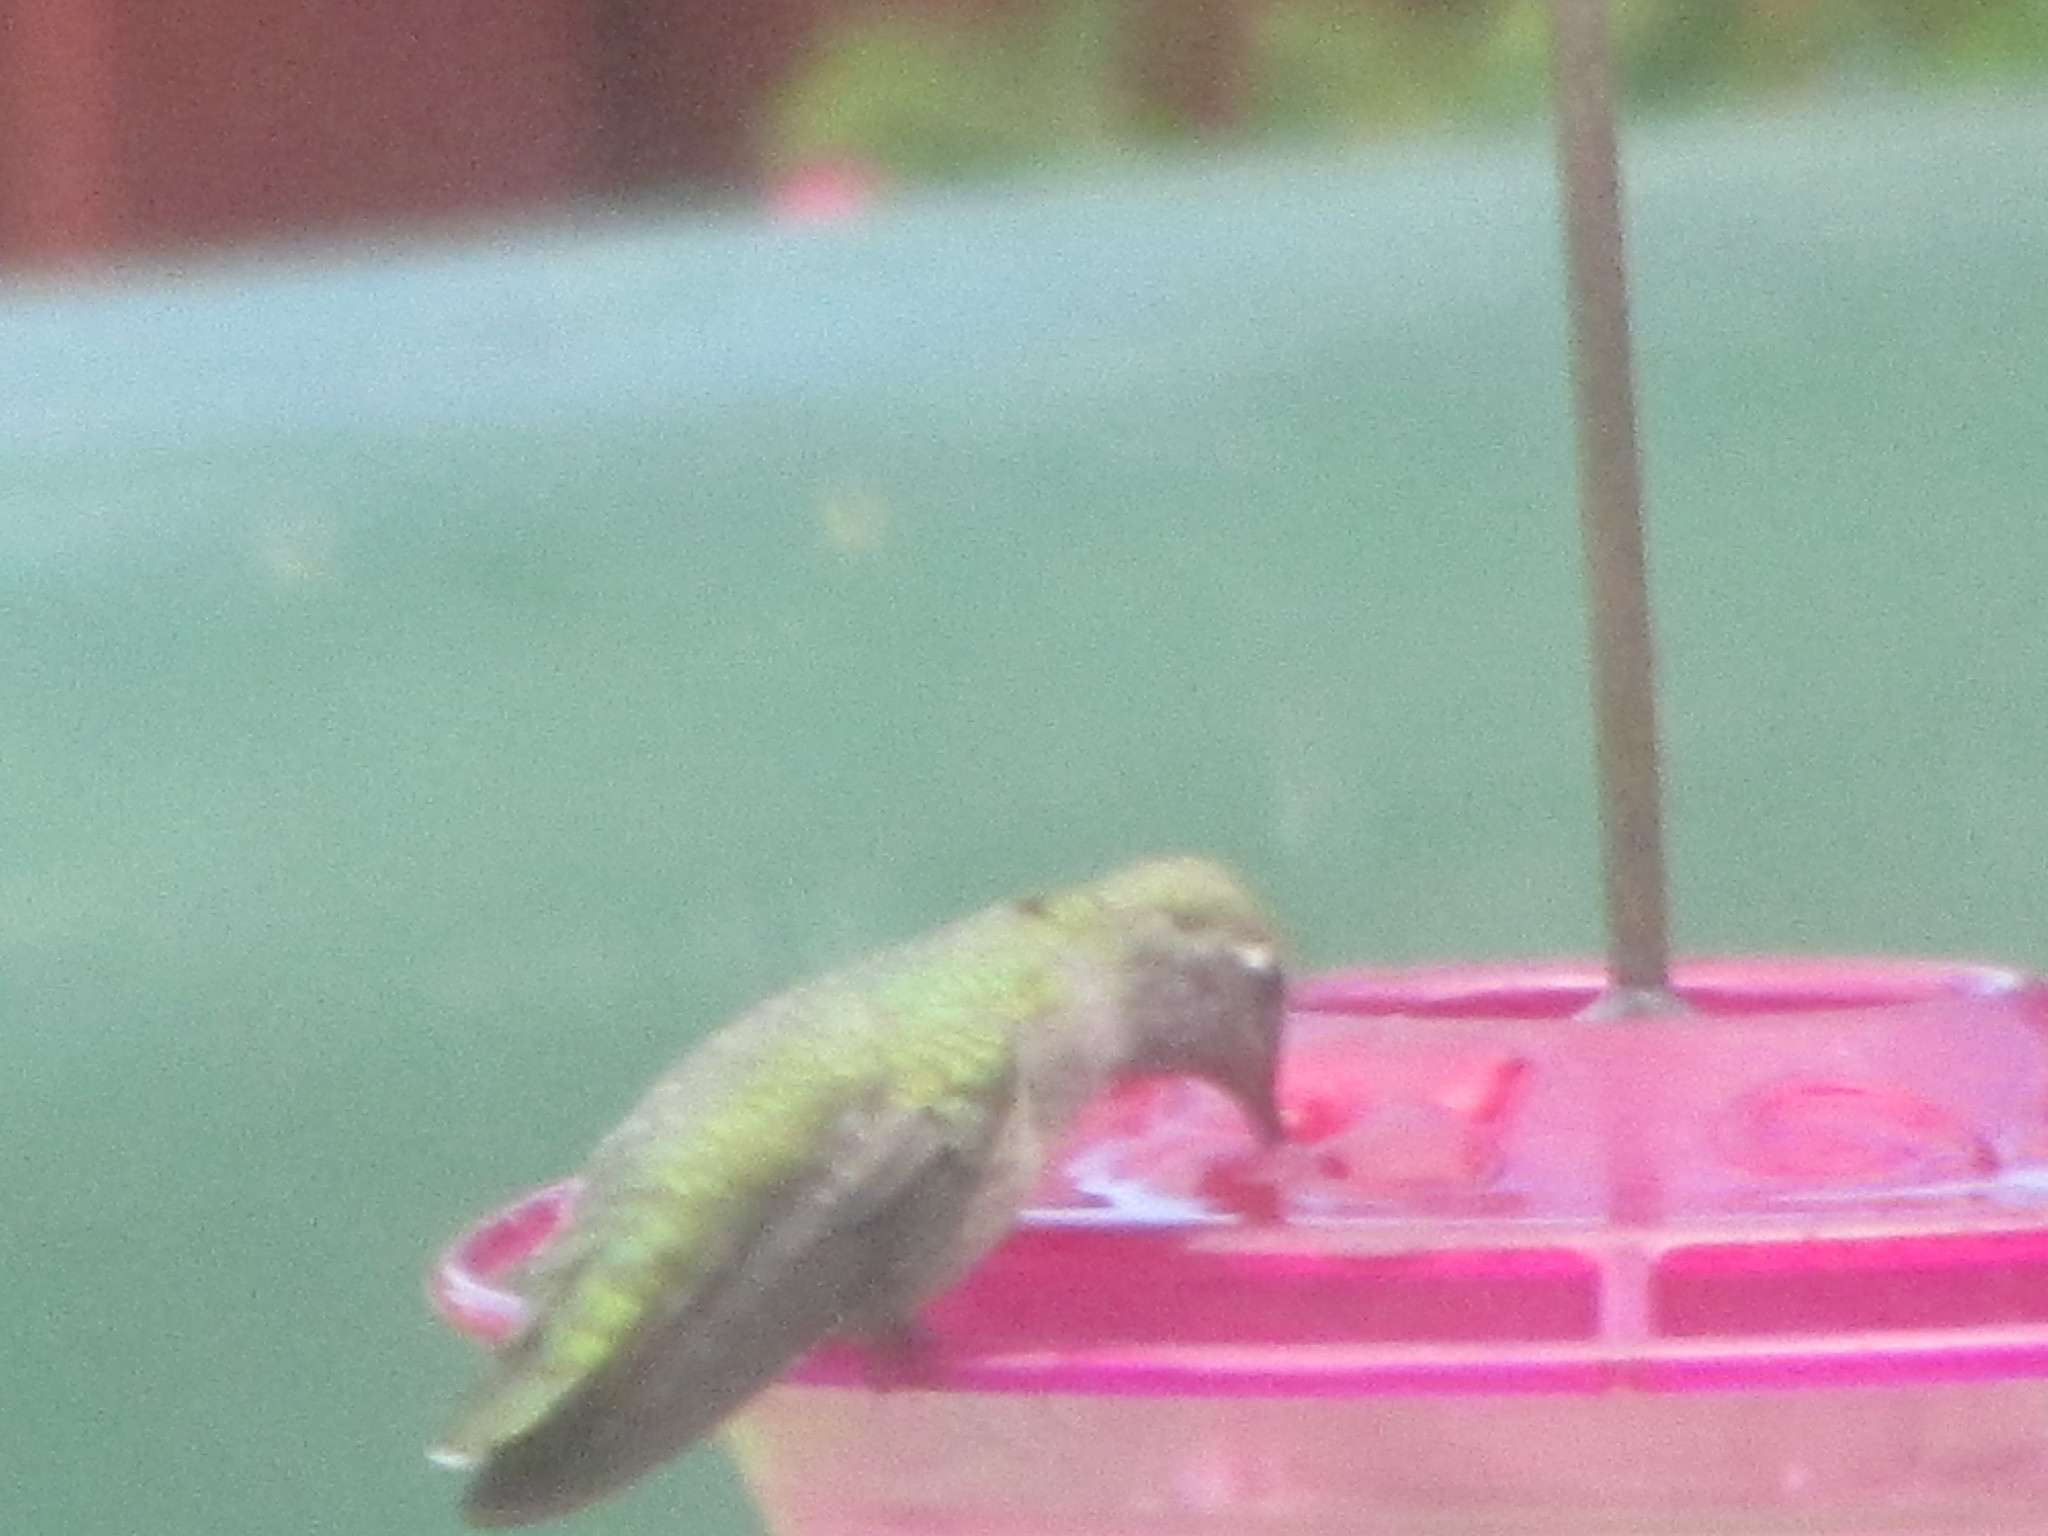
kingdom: Animalia
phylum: Chordata
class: Aves
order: Apodiformes
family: Trochilidae
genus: Calypte
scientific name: Calypte anna
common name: Anna's hummingbird
